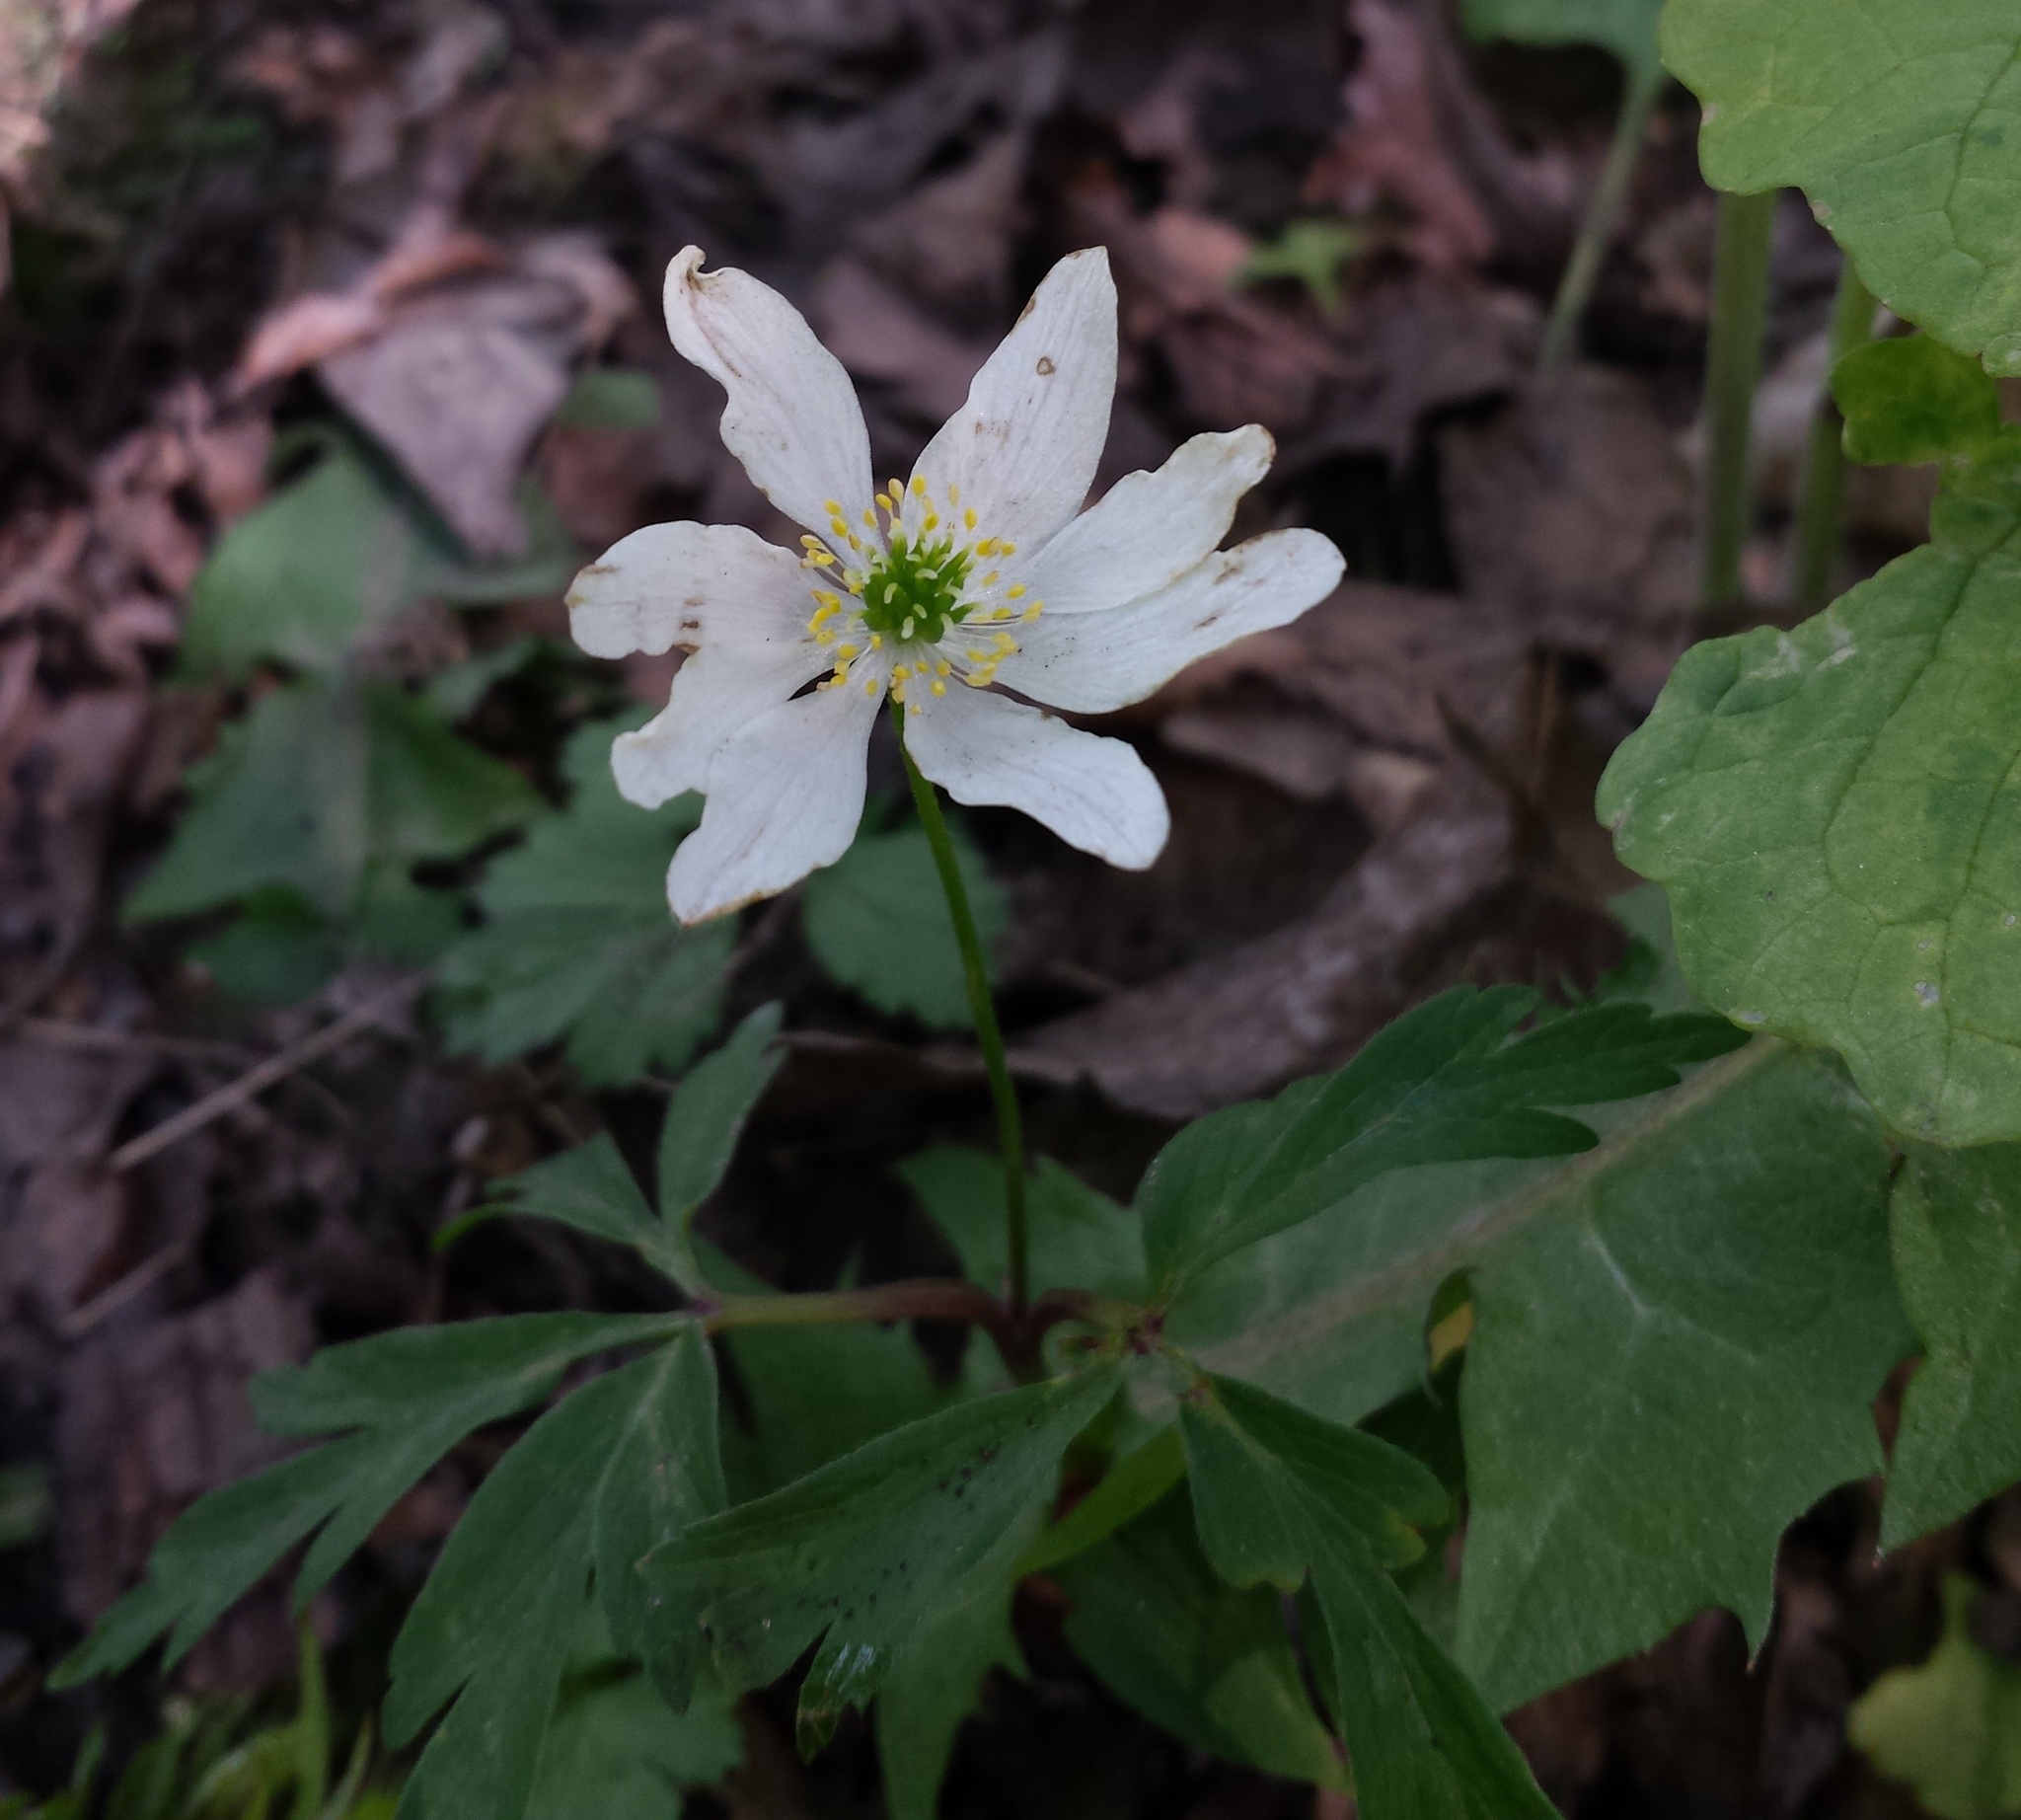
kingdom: Plantae
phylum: Tracheophyta
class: Magnoliopsida
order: Ranunculales
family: Ranunculaceae
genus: Anemone
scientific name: Anemone nemorosa
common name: Wood anemone
